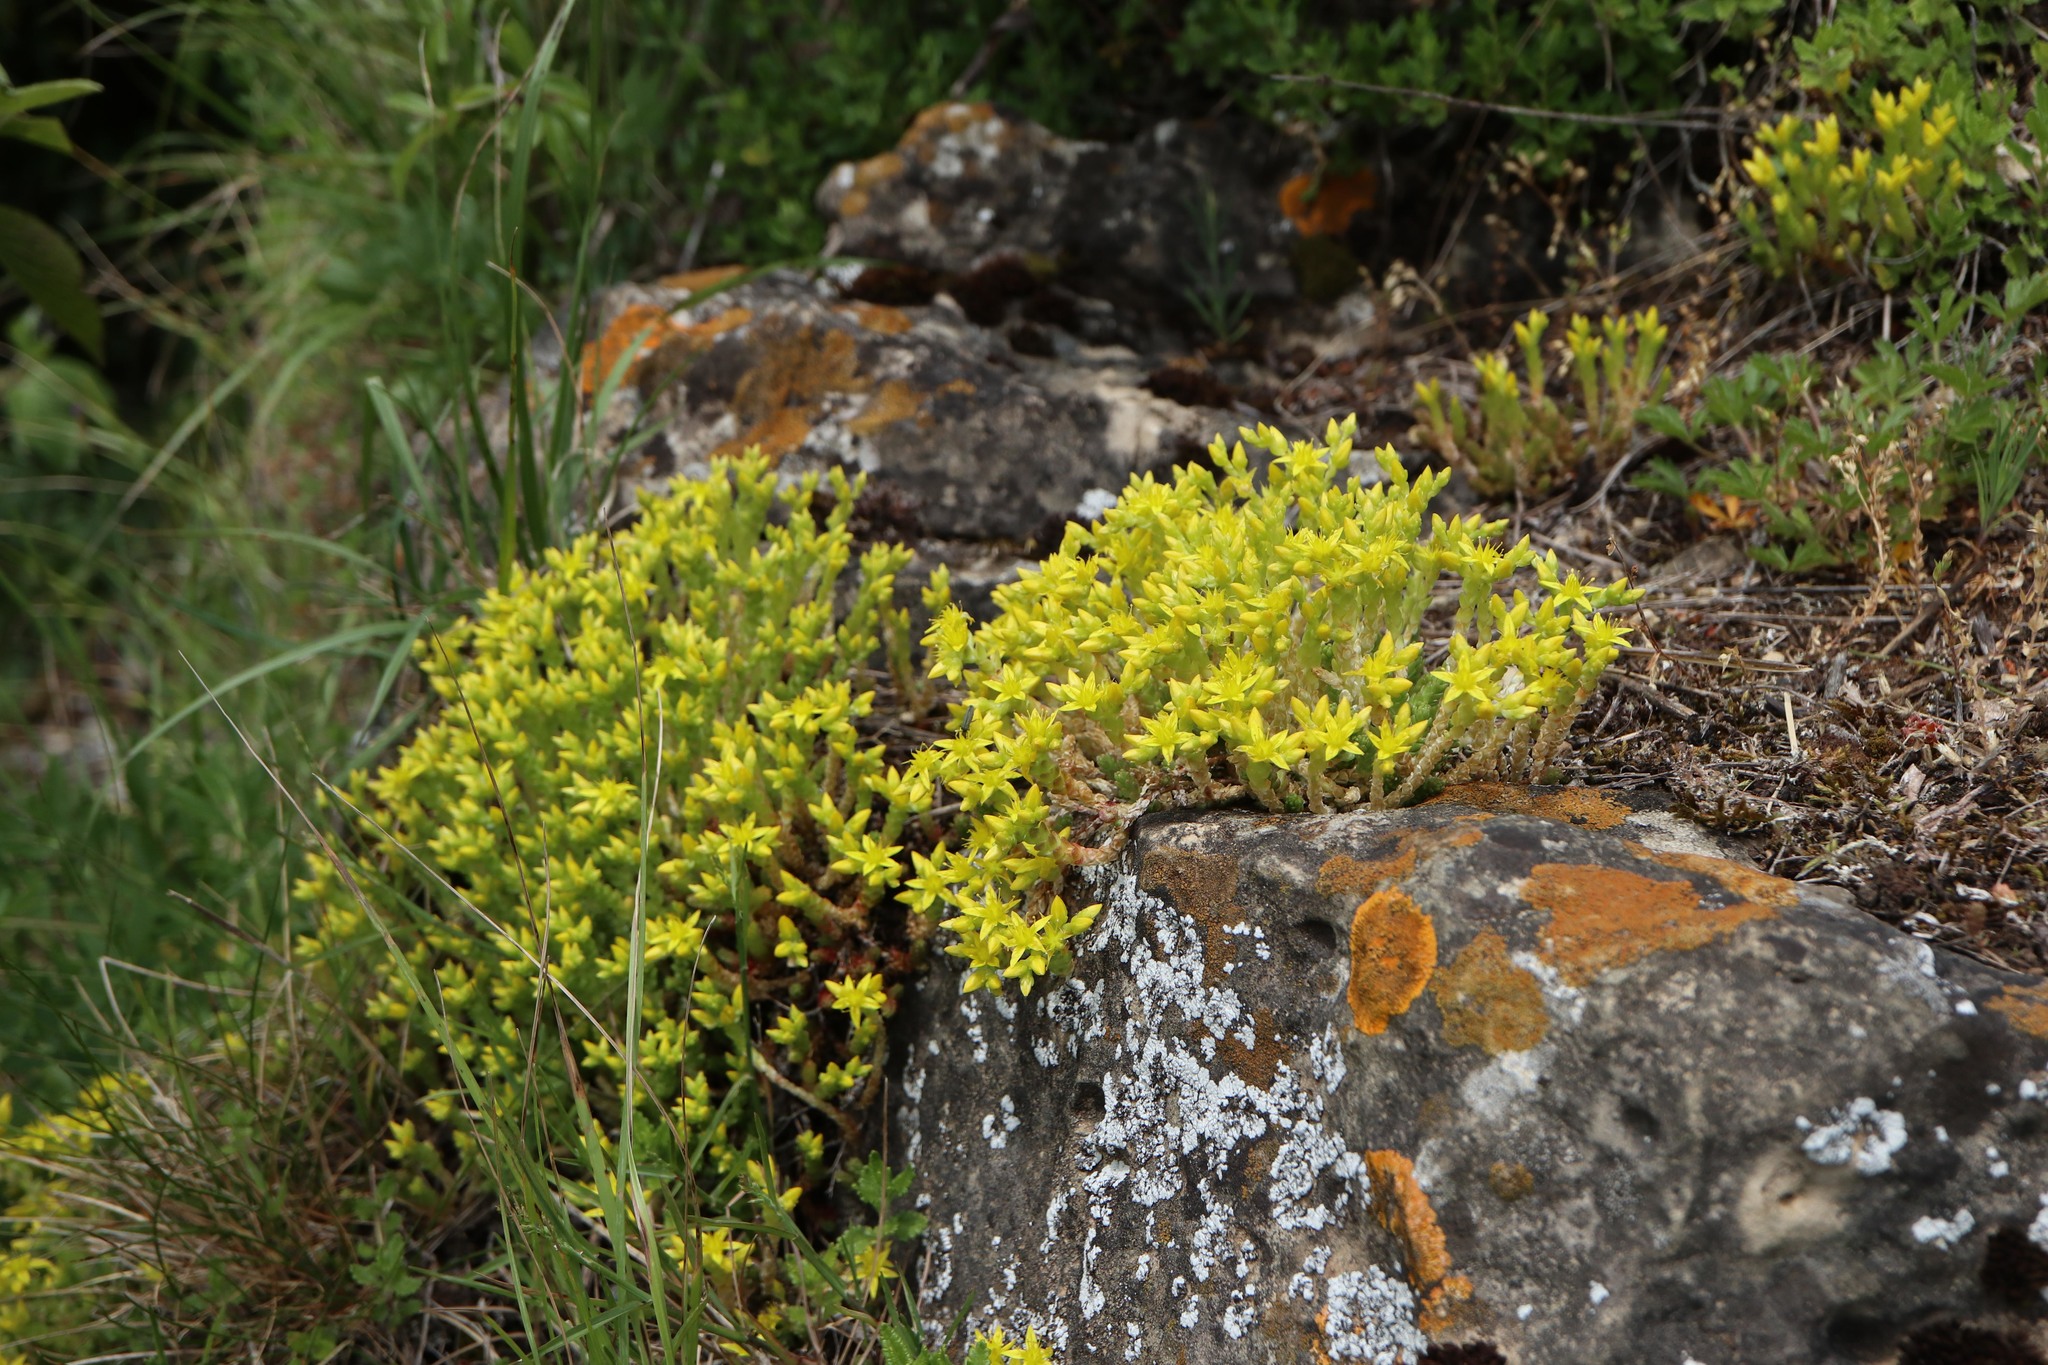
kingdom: Plantae
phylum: Tracheophyta
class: Magnoliopsida
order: Saxifragales
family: Crassulaceae
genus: Sedum
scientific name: Sedum acre
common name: Biting stonecrop
